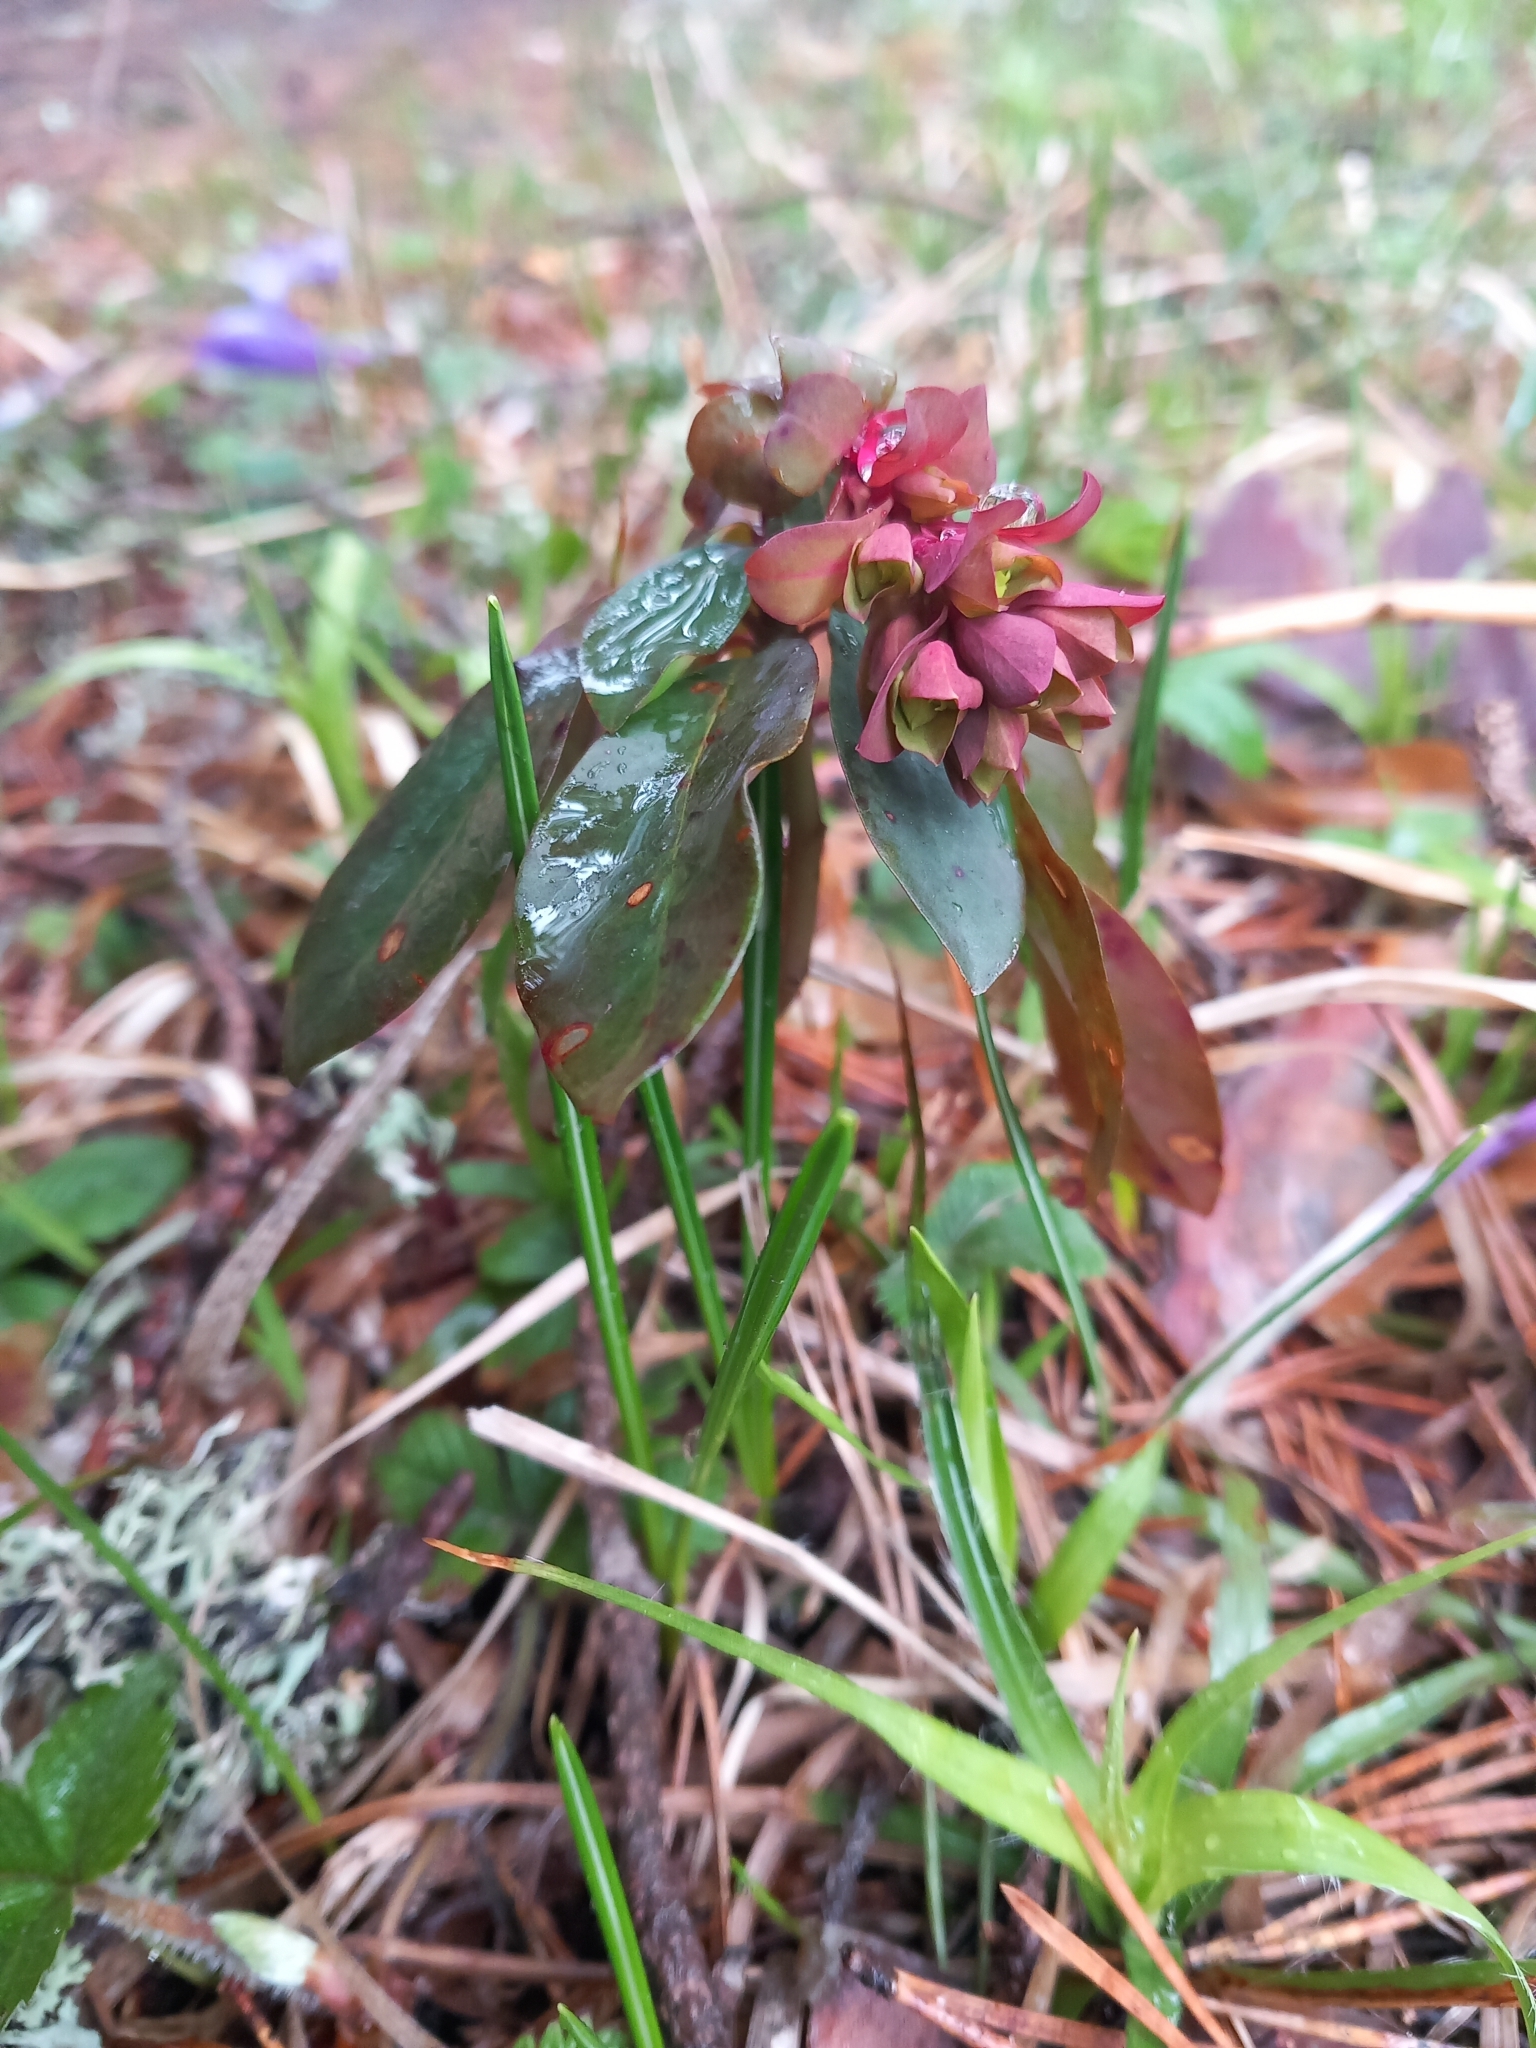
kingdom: Plantae
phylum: Tracheophyta
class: Magnoliopsida
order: Malpighiales
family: Euphorbiaceae
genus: Euphorbia
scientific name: Euphorbia amygdaloides
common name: Wood spurge
